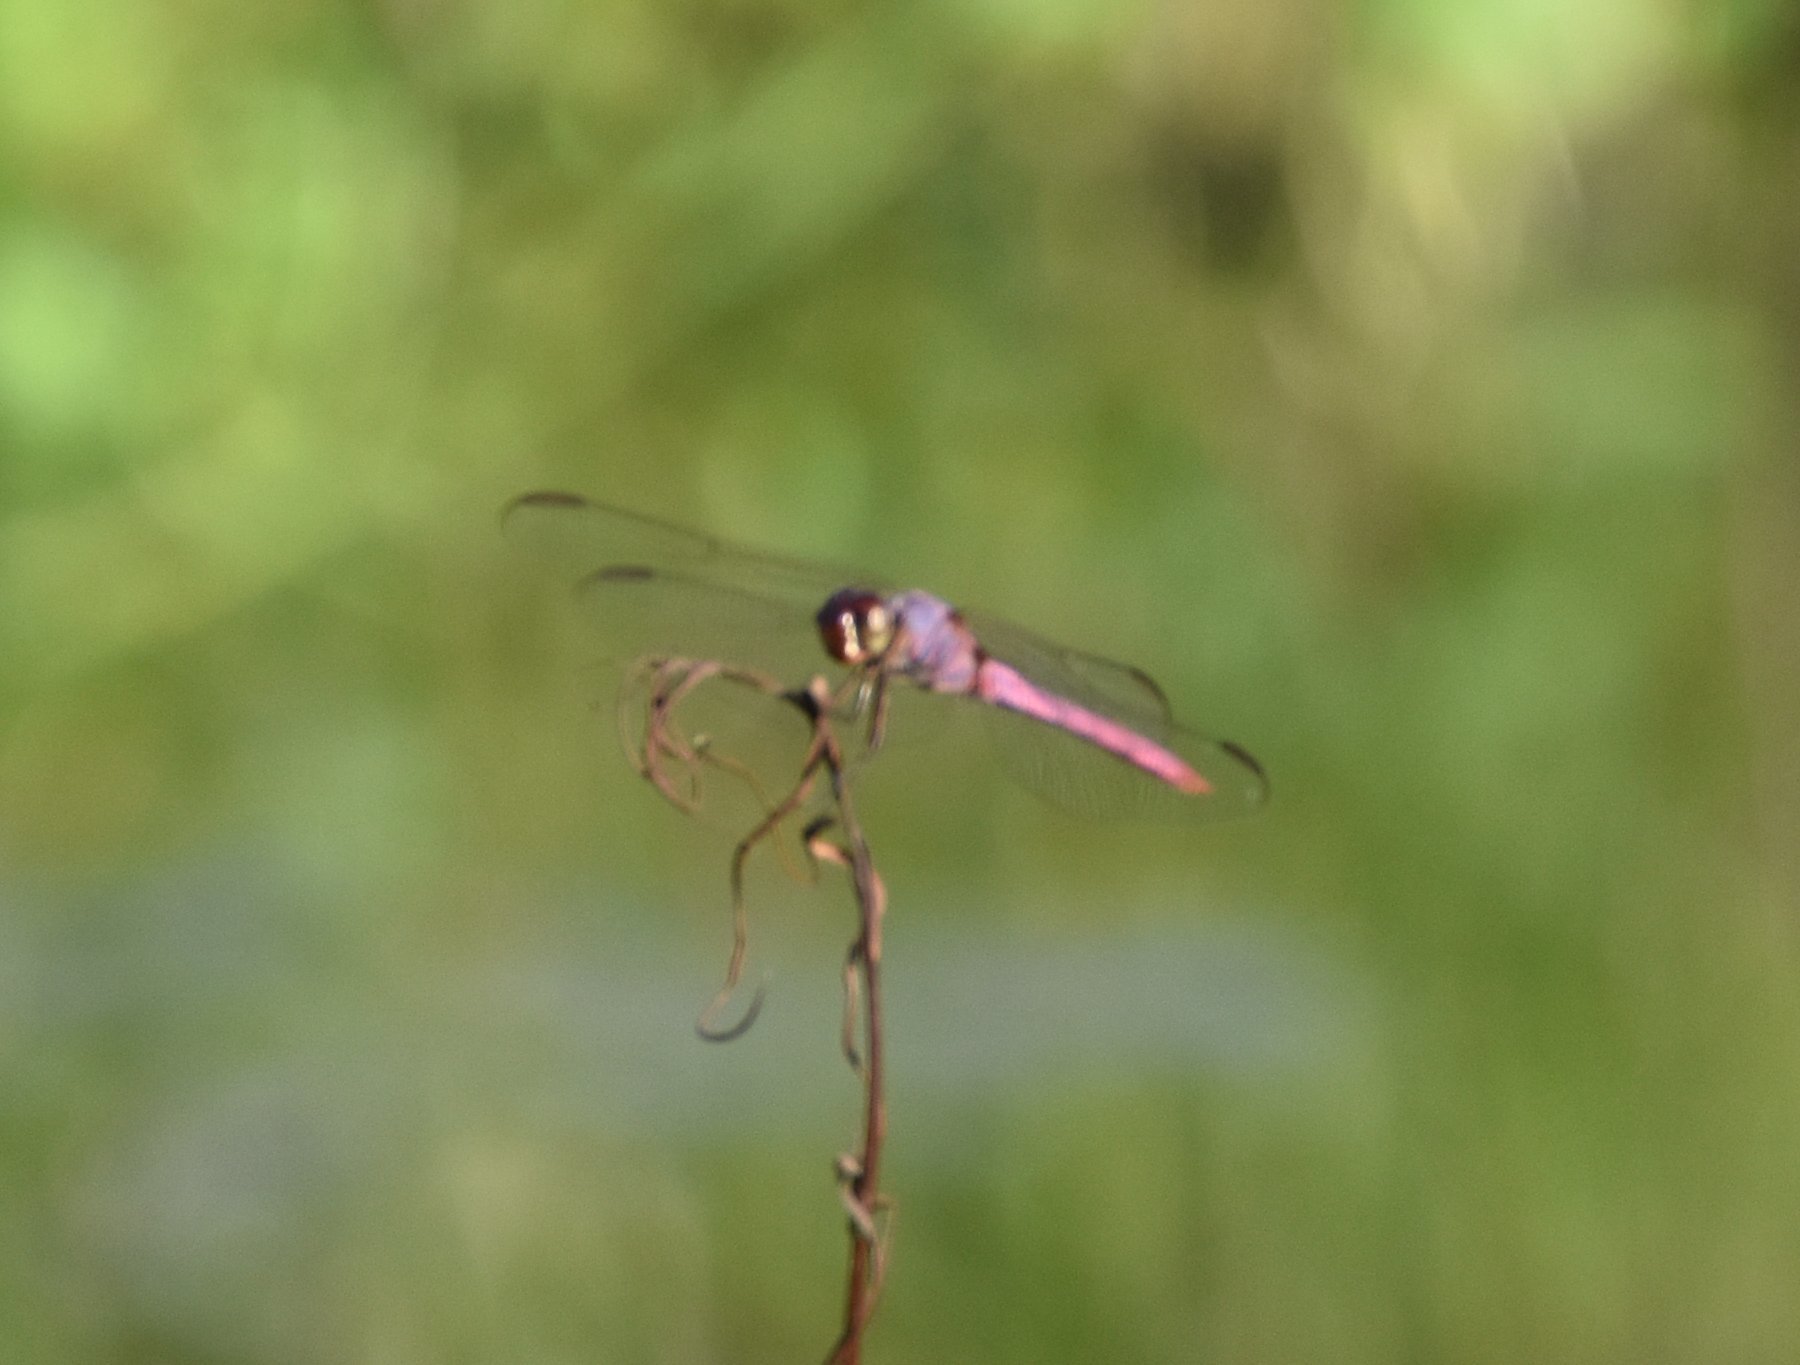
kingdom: Animalia
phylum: Arthropoda
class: Insecta
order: Odonata
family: Libellulidae
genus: Orthemis
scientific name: Orthemis ferruginea
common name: Roseate skimmer
